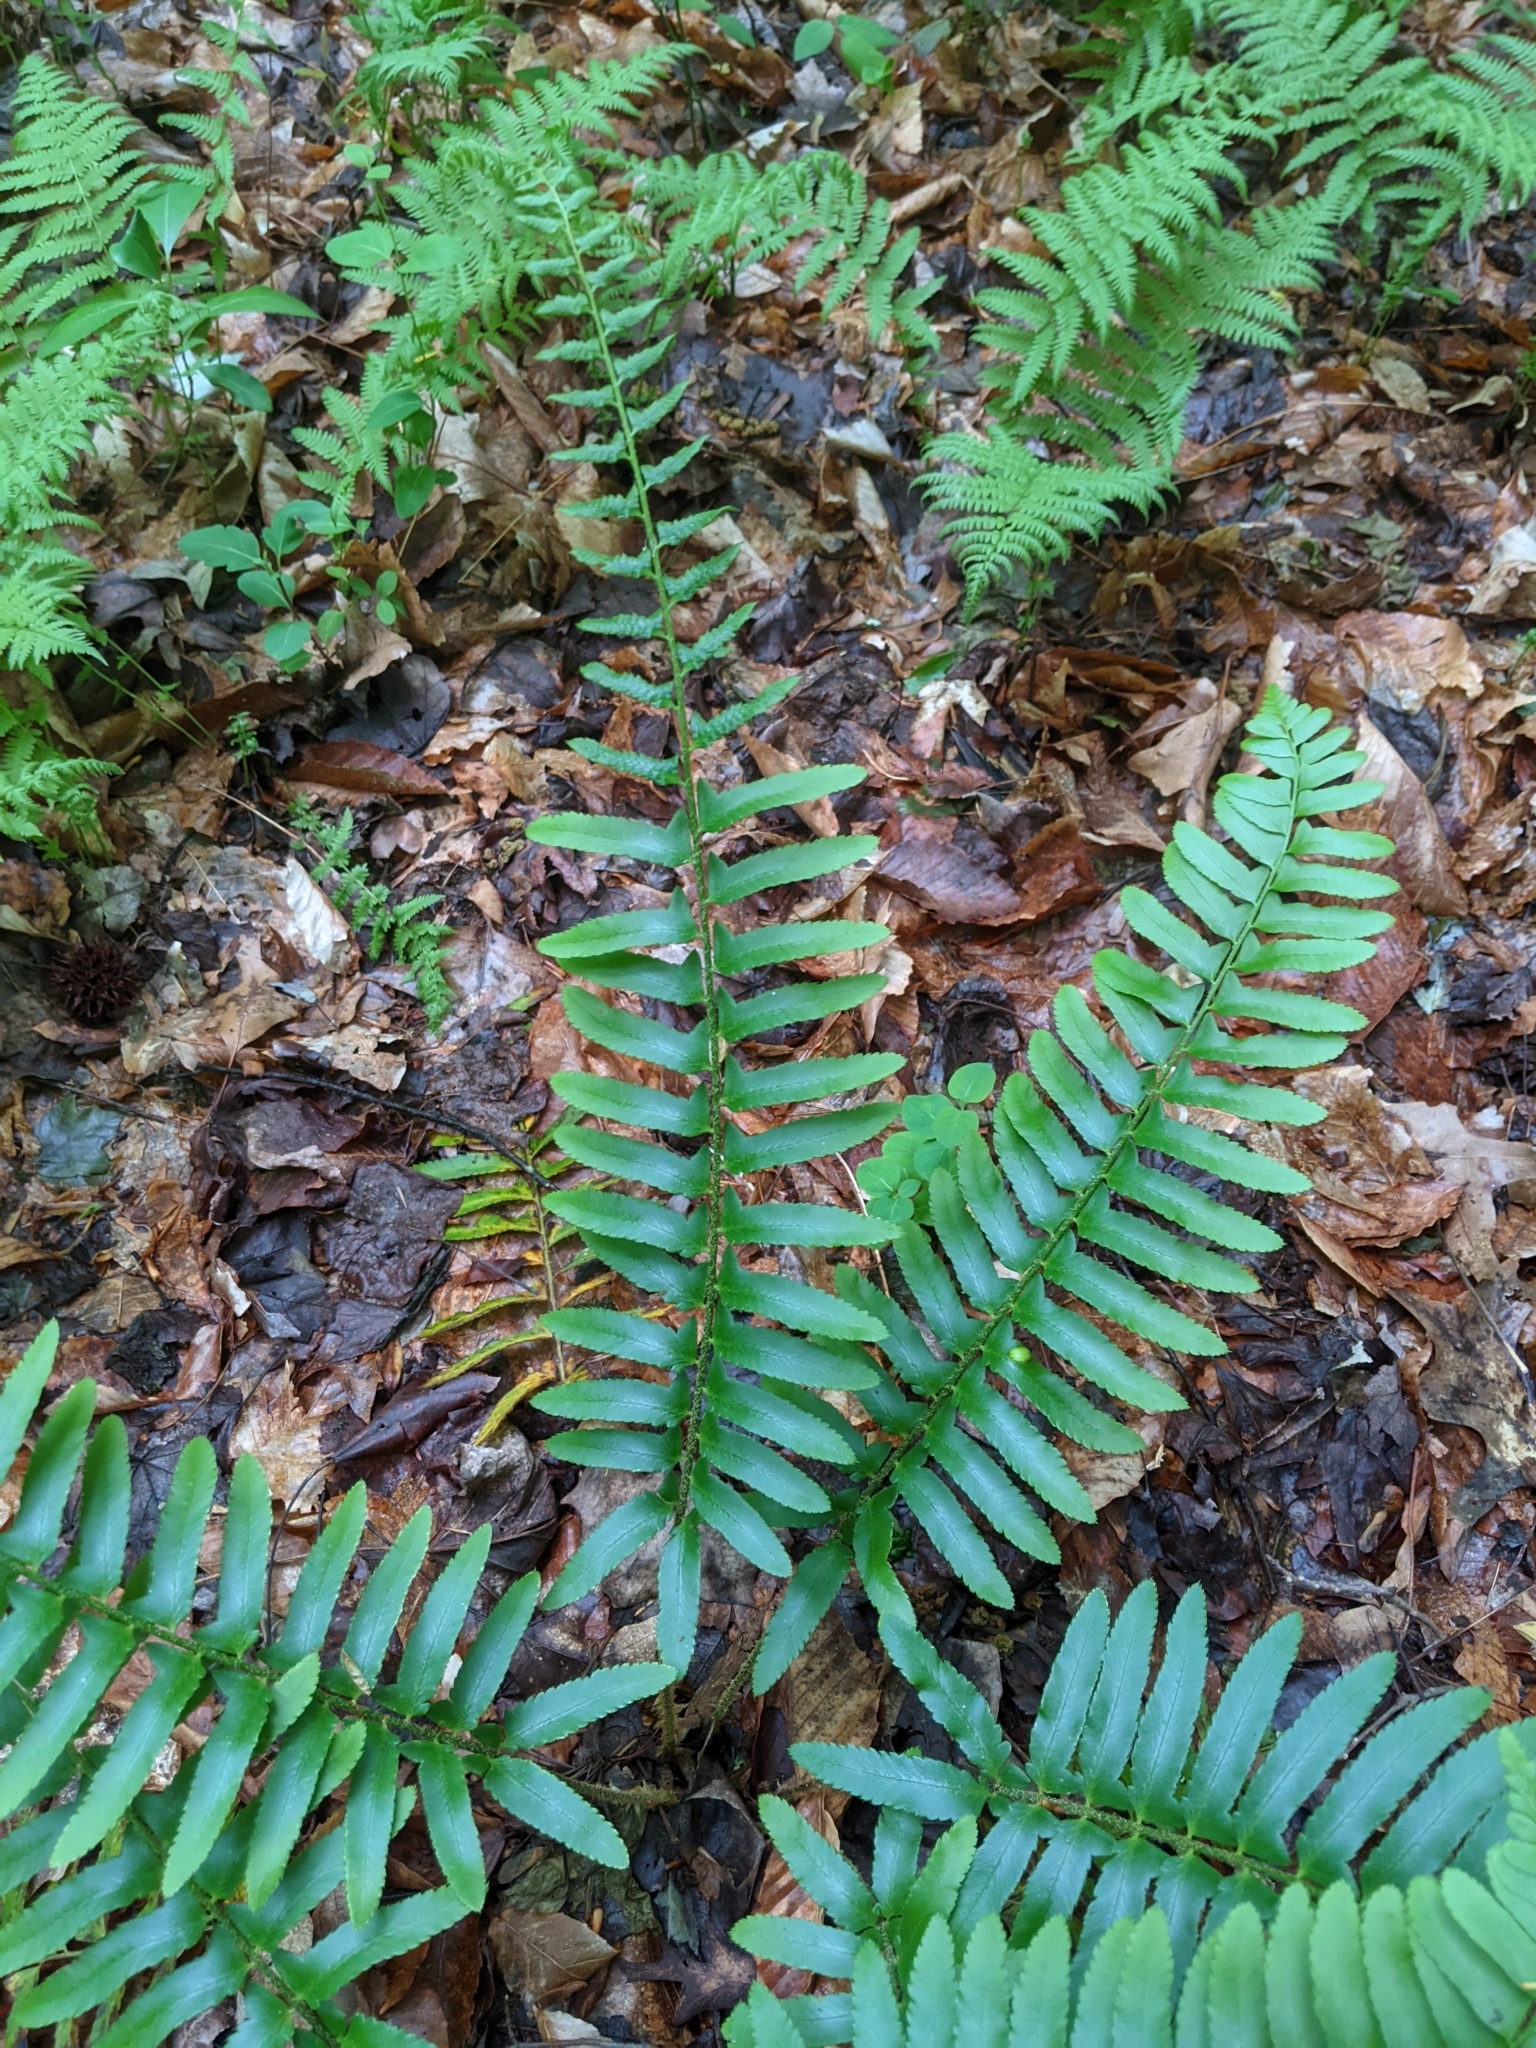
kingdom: Plantae
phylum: Tracheophyta
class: Polypodiopsida
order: Polypodiales
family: Dryopteridaceae
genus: Polystichum
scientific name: Polystichum acrostichoides
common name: Christmas fern
